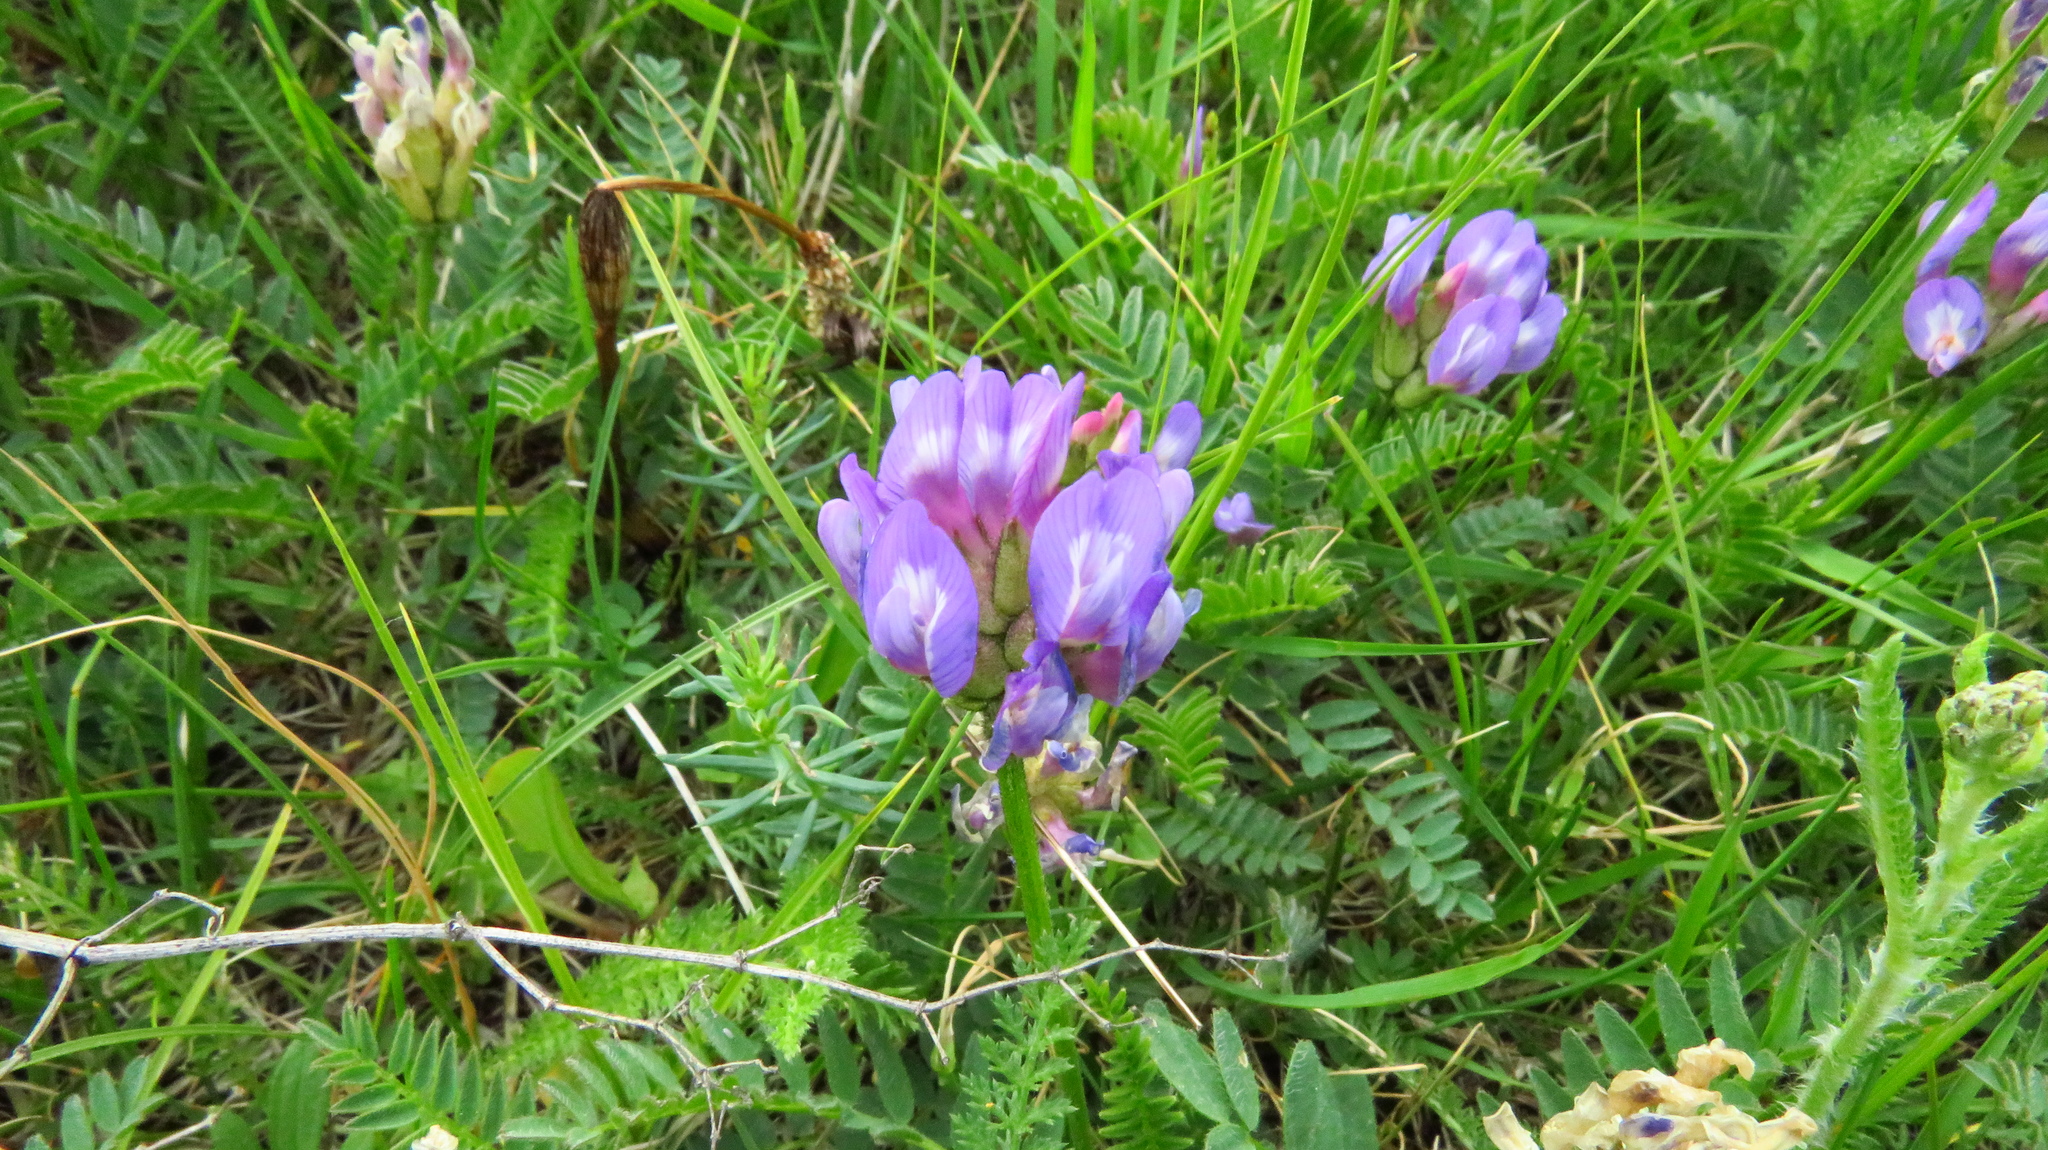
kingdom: Plantae
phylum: Tracheophyta
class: Magnoliopsida
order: Fabales
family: Fabaceae
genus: Astragalus
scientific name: Astragalus danicus
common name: Purple milk-vetch
